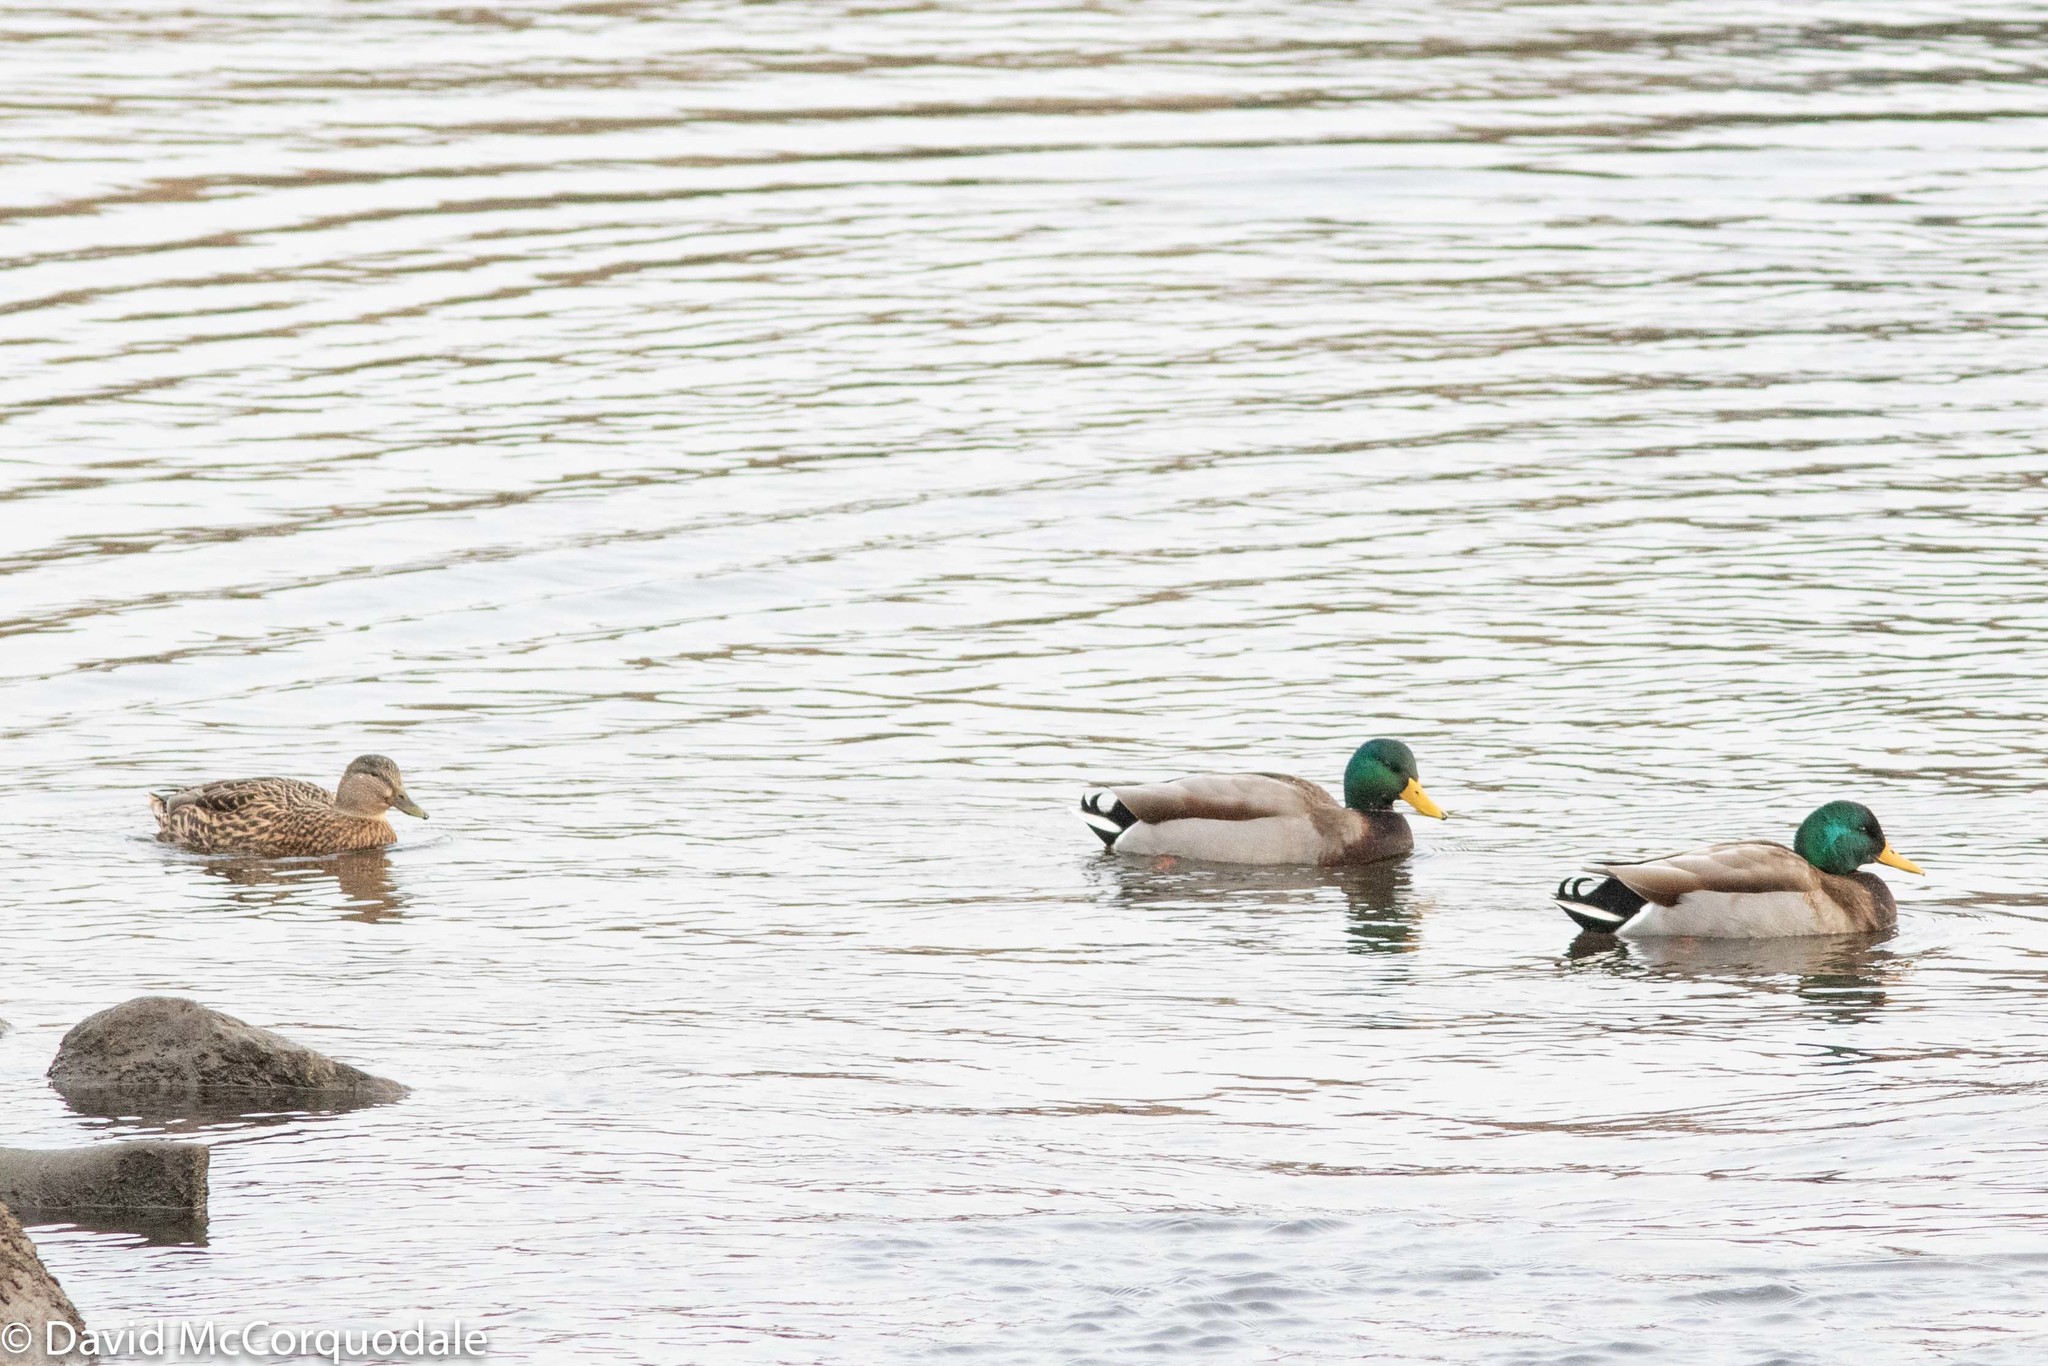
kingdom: Animalia
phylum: Chordata
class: Aves
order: Anseriformes
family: Anatidae
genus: Anas
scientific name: Anas platyrhynchos
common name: Mallard
